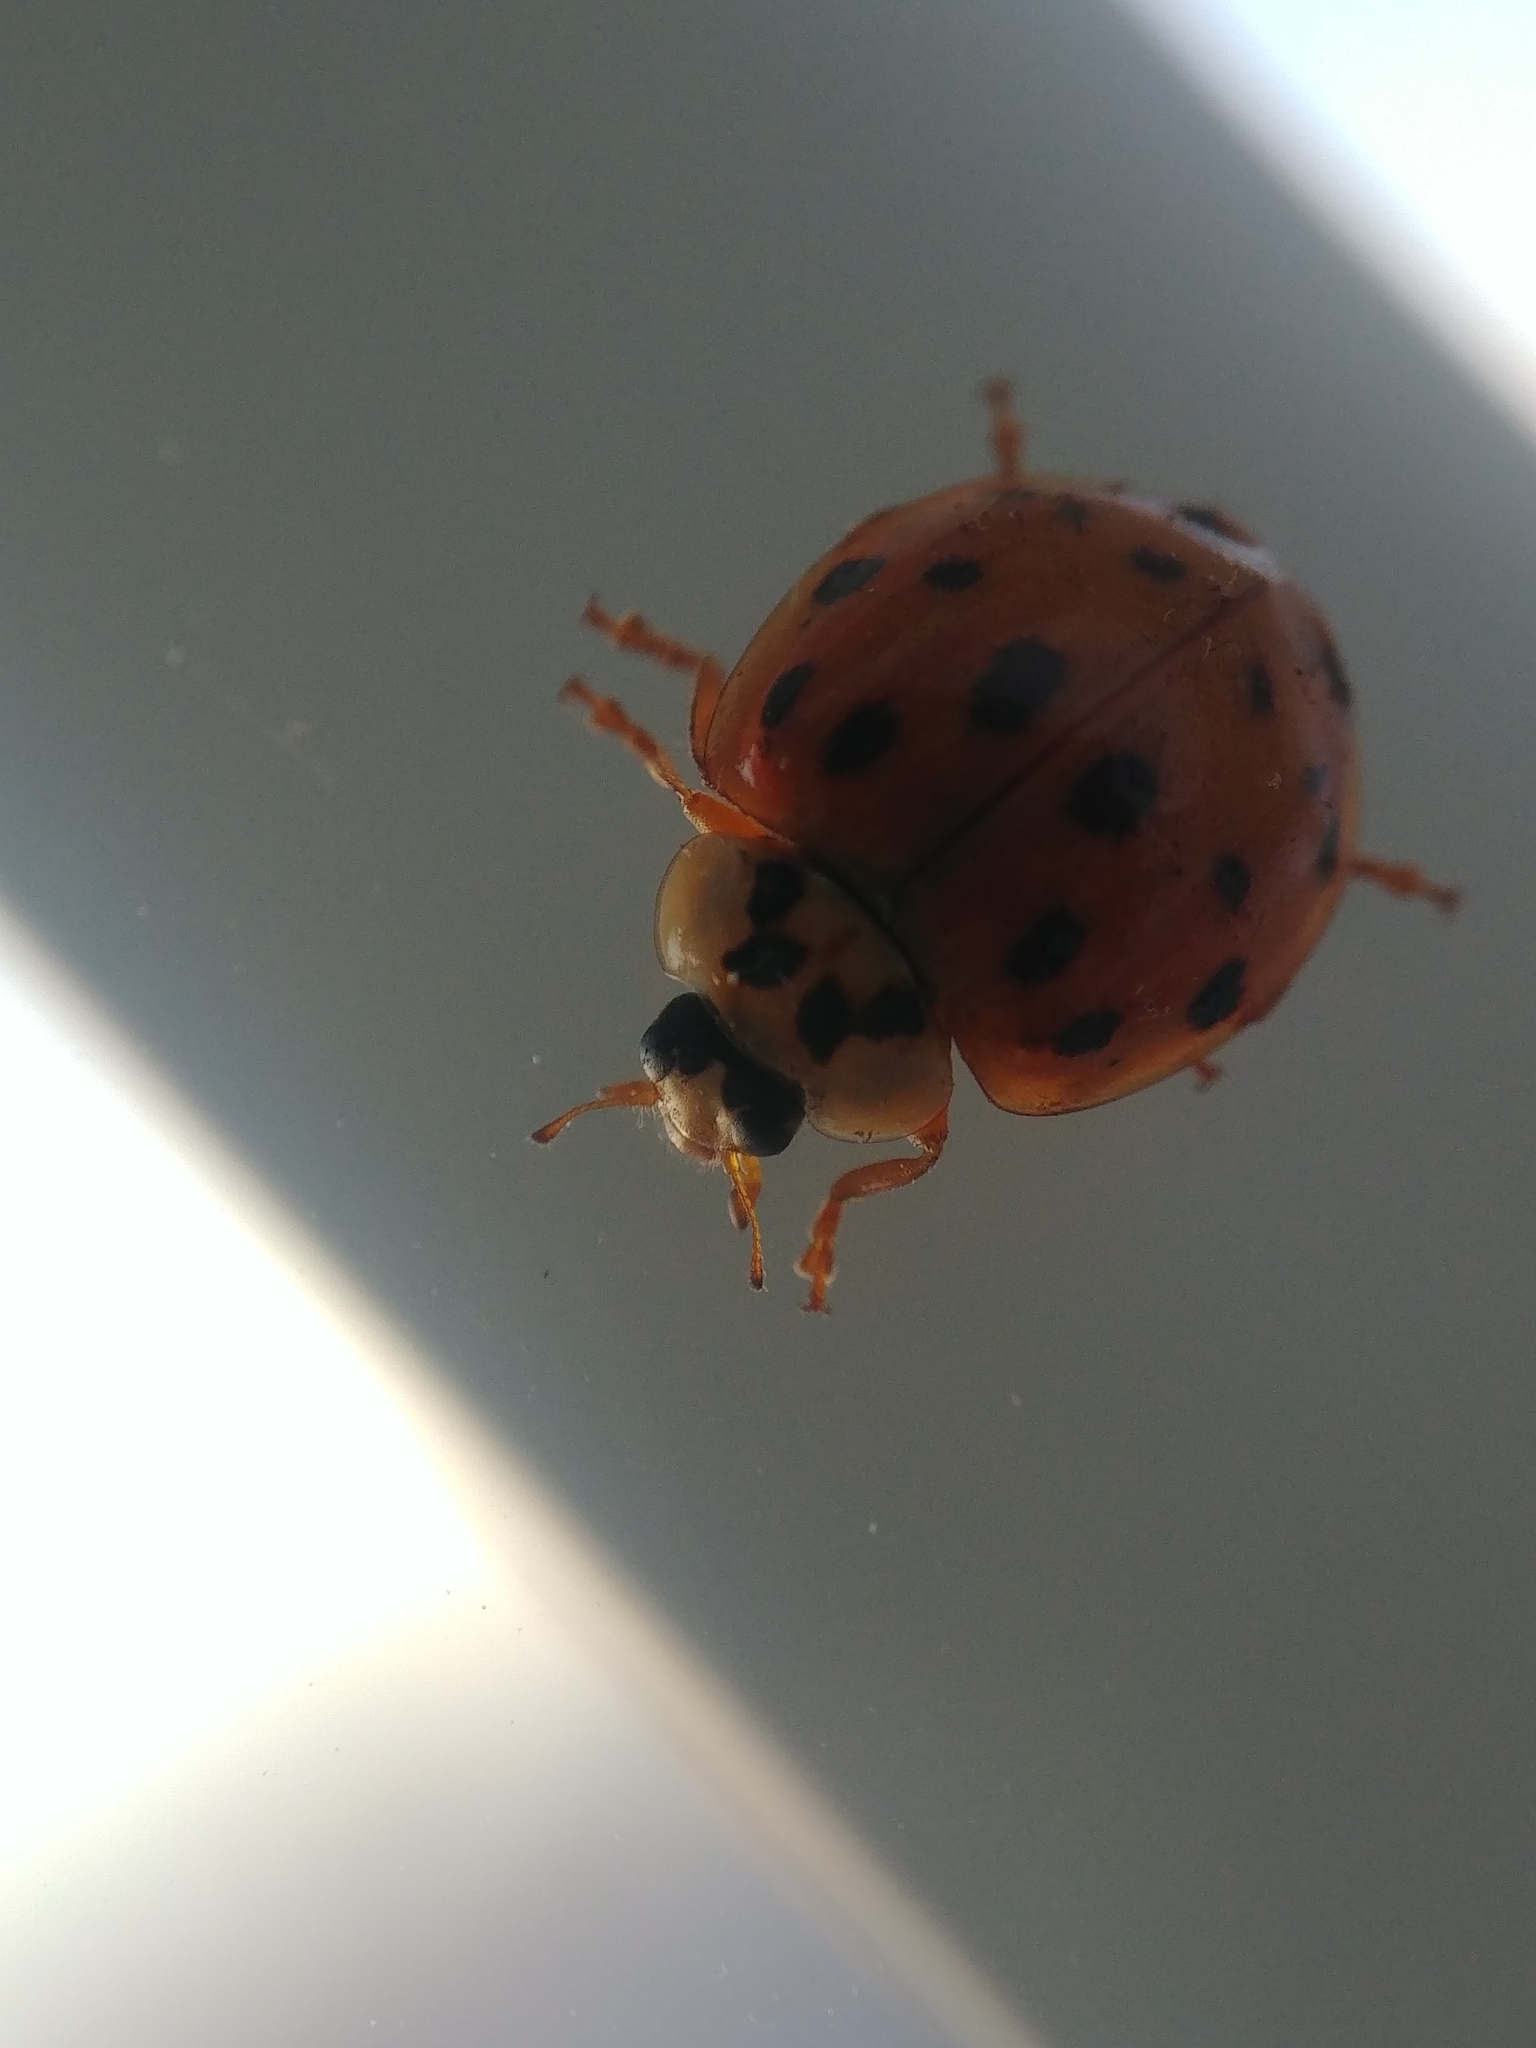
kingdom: Animalia
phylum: Arthropoda
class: Insecta
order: Coleoptera
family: Coccinellidae
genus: Harmonia
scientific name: Harmonia axyridis
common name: Harlequin ladybird
